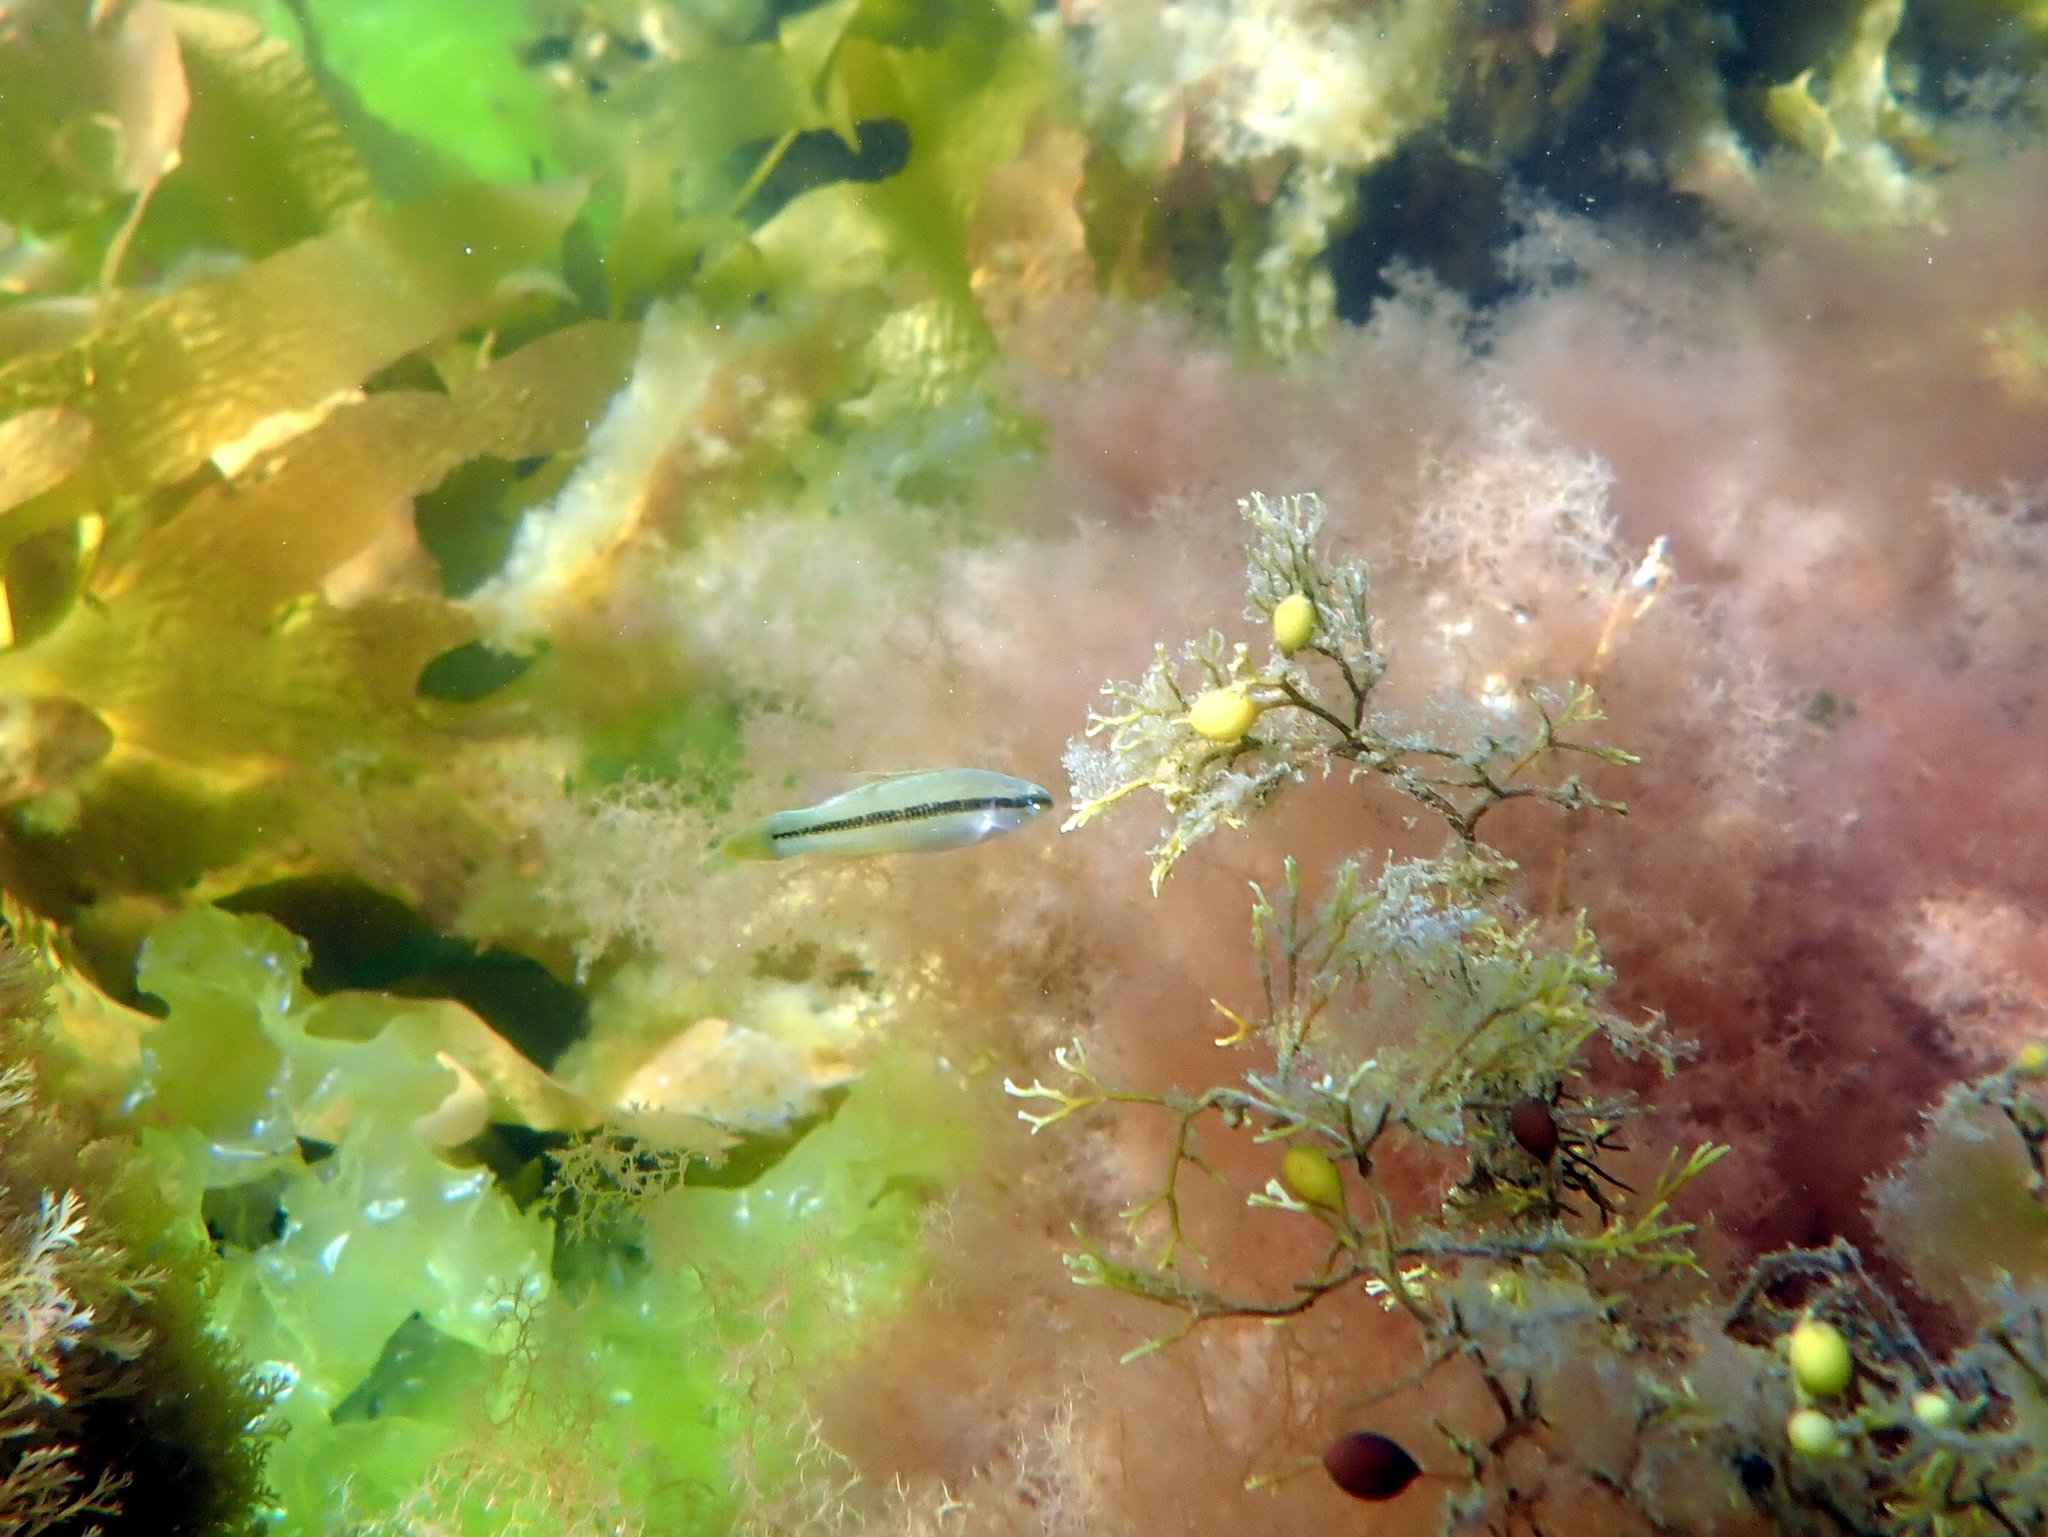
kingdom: Animalia
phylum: Chordata
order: Perciformes
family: Odacidae
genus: Neoodax
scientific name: Neoodax balteatus
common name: Ground mullet
